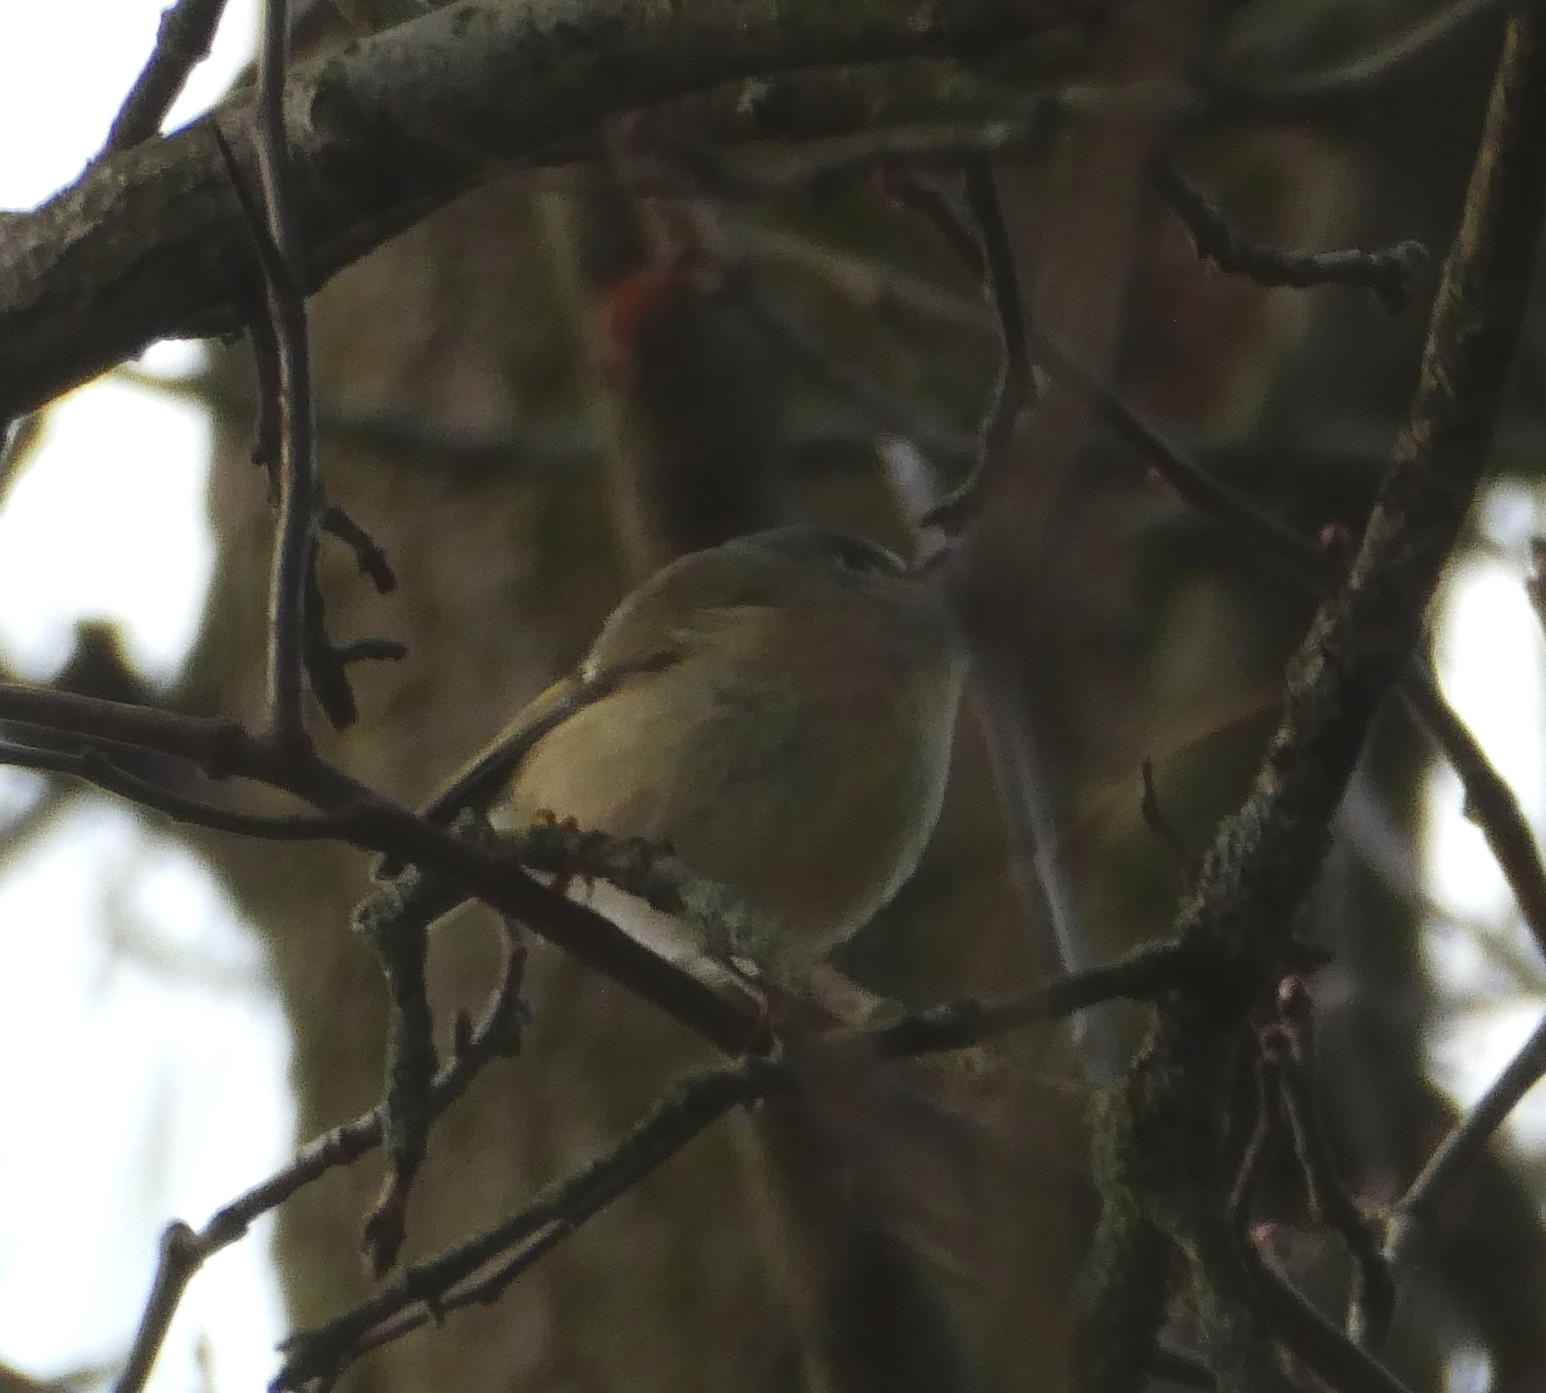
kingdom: Animalia
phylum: Chordata
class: Aves
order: Passeriformes
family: Regulidae
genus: Regulus
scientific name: Regulus calendula
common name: Ruby-crowned kinglet
